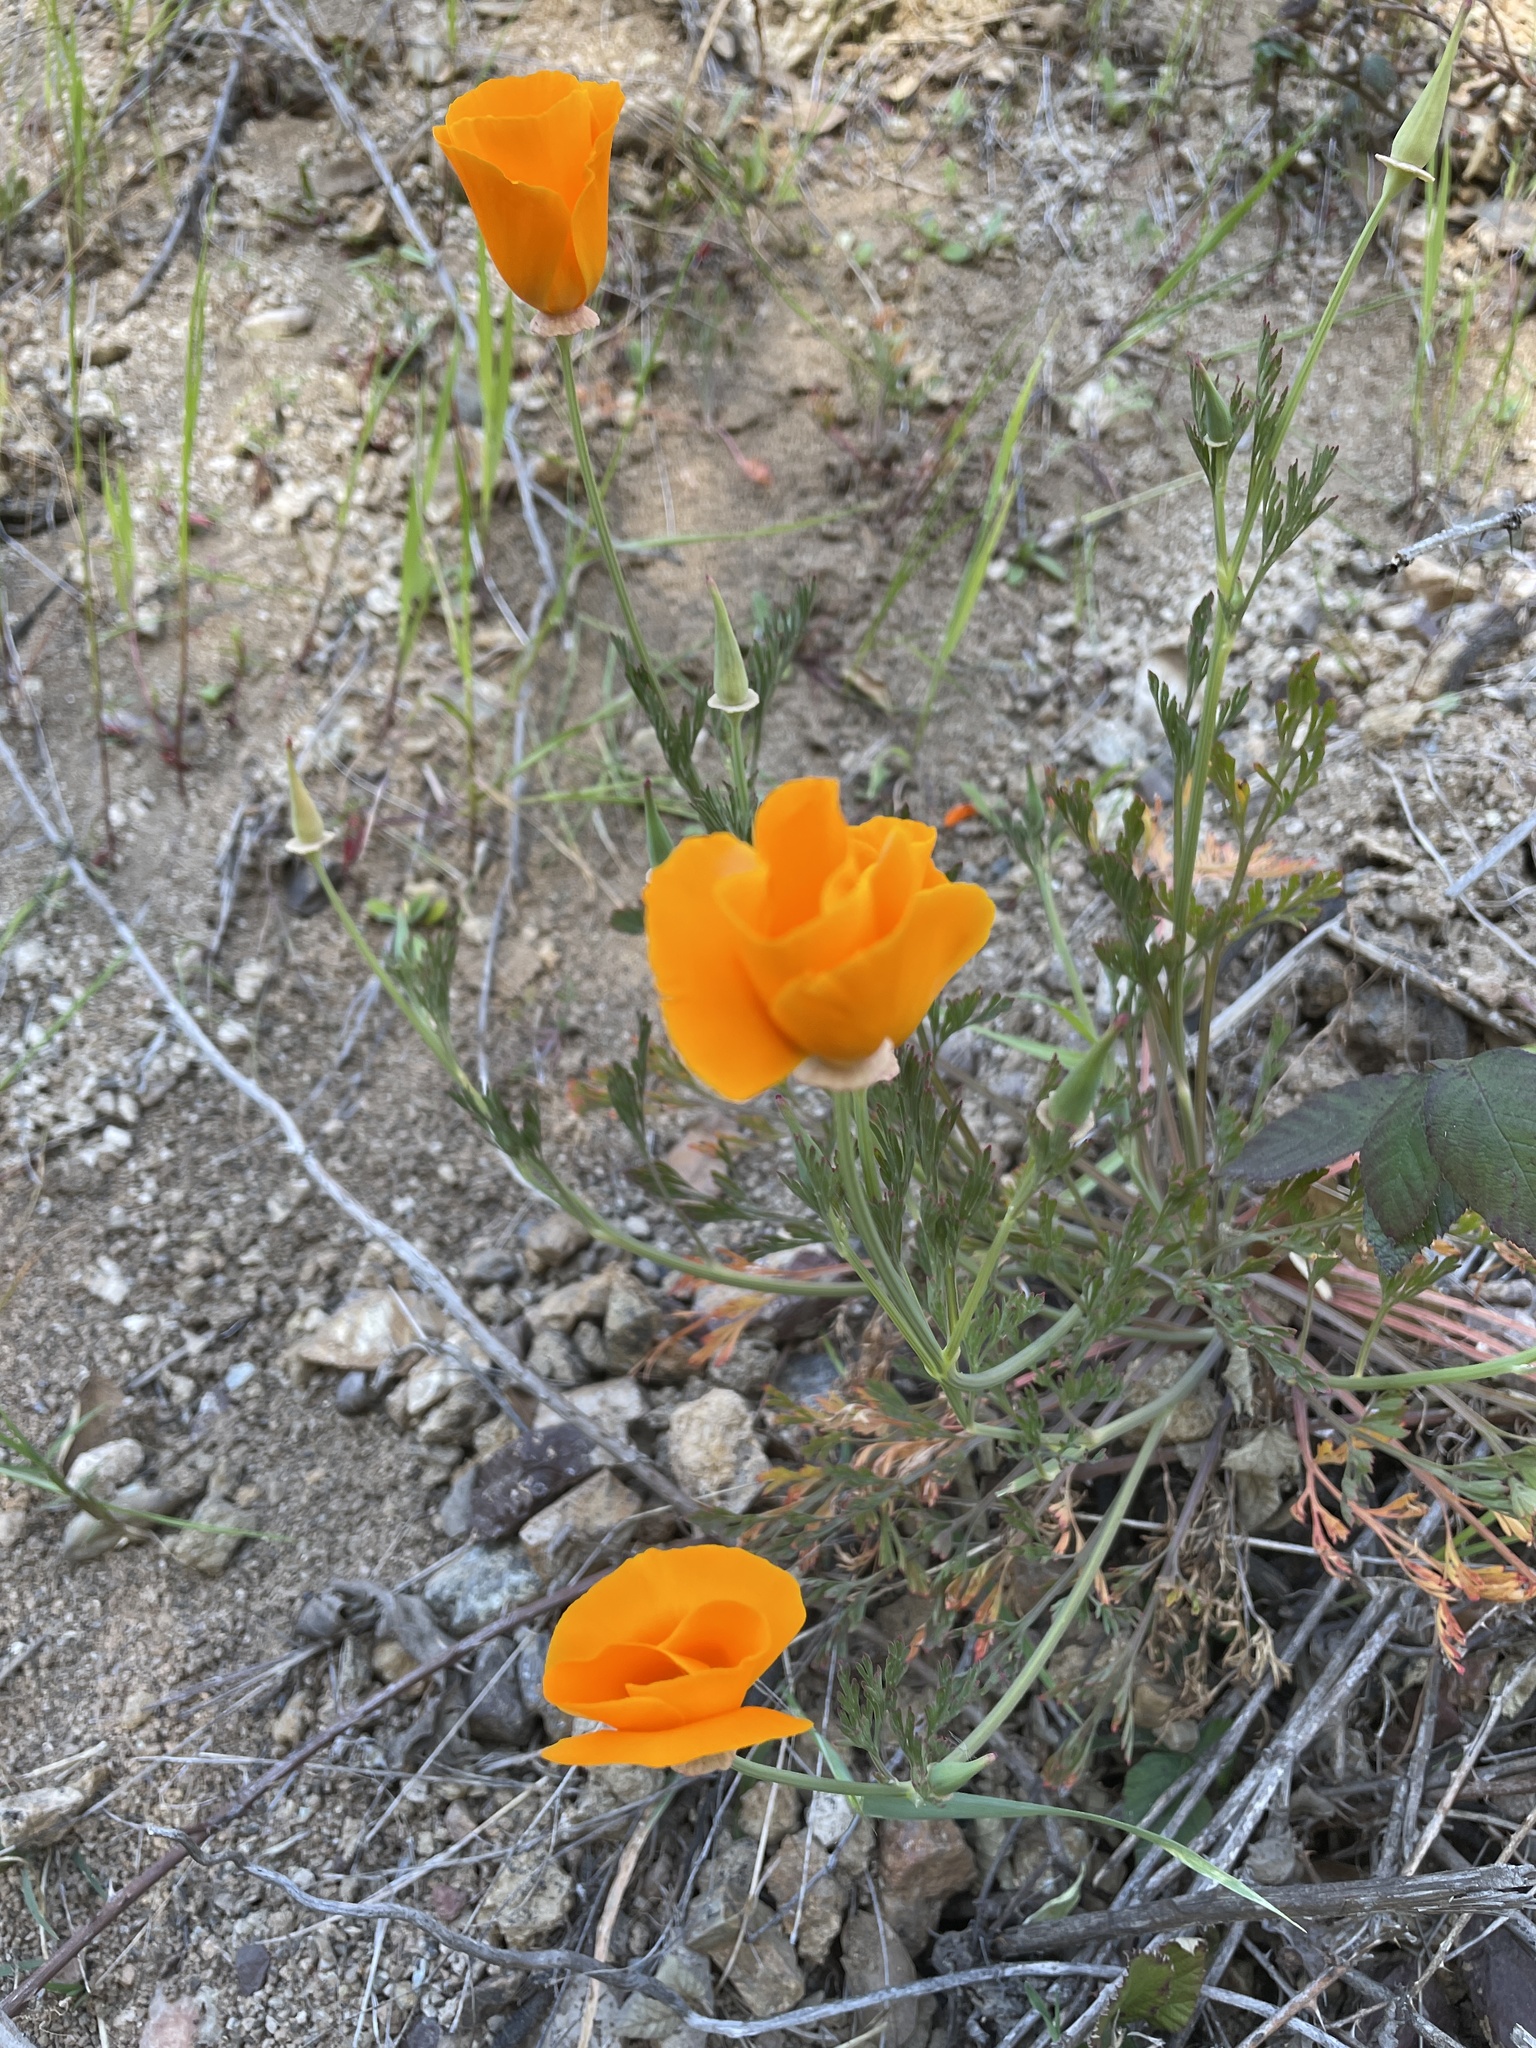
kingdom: Plantae
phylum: Tracheophyta
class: Magnoliopsida
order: Ranunculales
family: Papaveraceae
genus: Eschscholzia
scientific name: Eschscholzia californica
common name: California poppy
